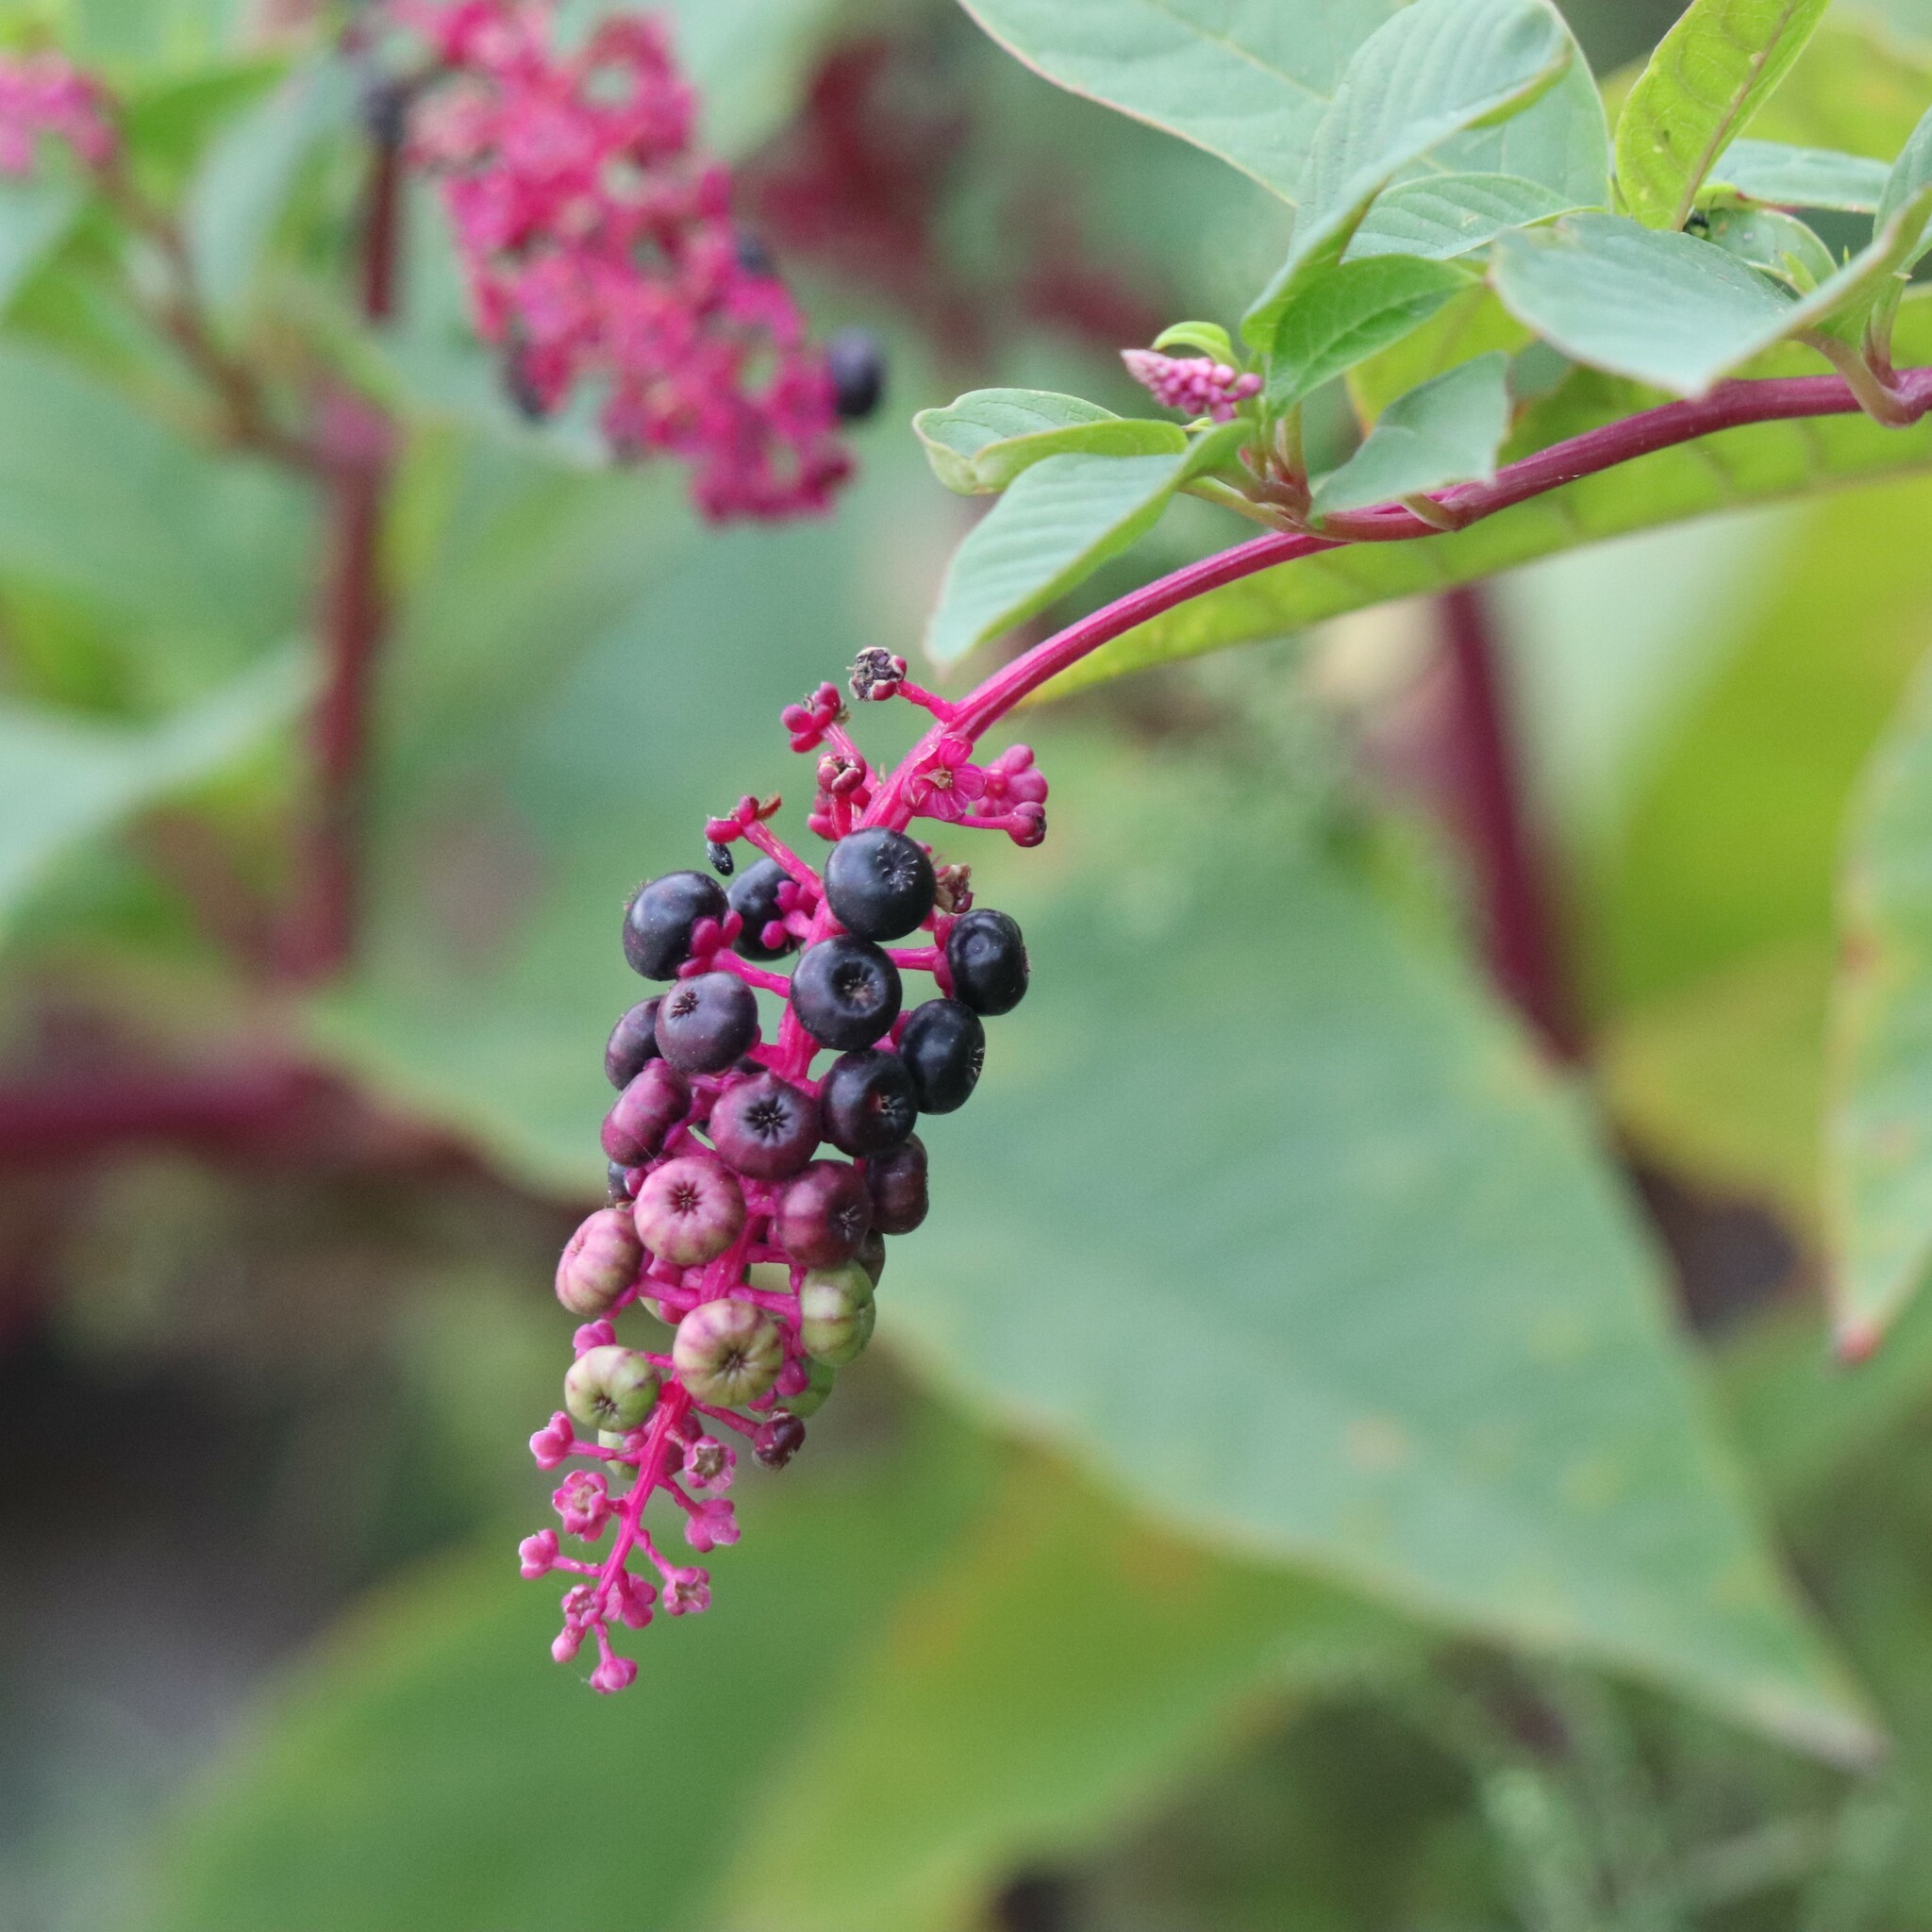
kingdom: Plantae
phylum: Tracheophyta
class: Magnoliopsida
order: Caryophyllales
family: Phytolaccaceae
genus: Phytolacca
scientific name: Phytolacca americana
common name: American pokeweed
